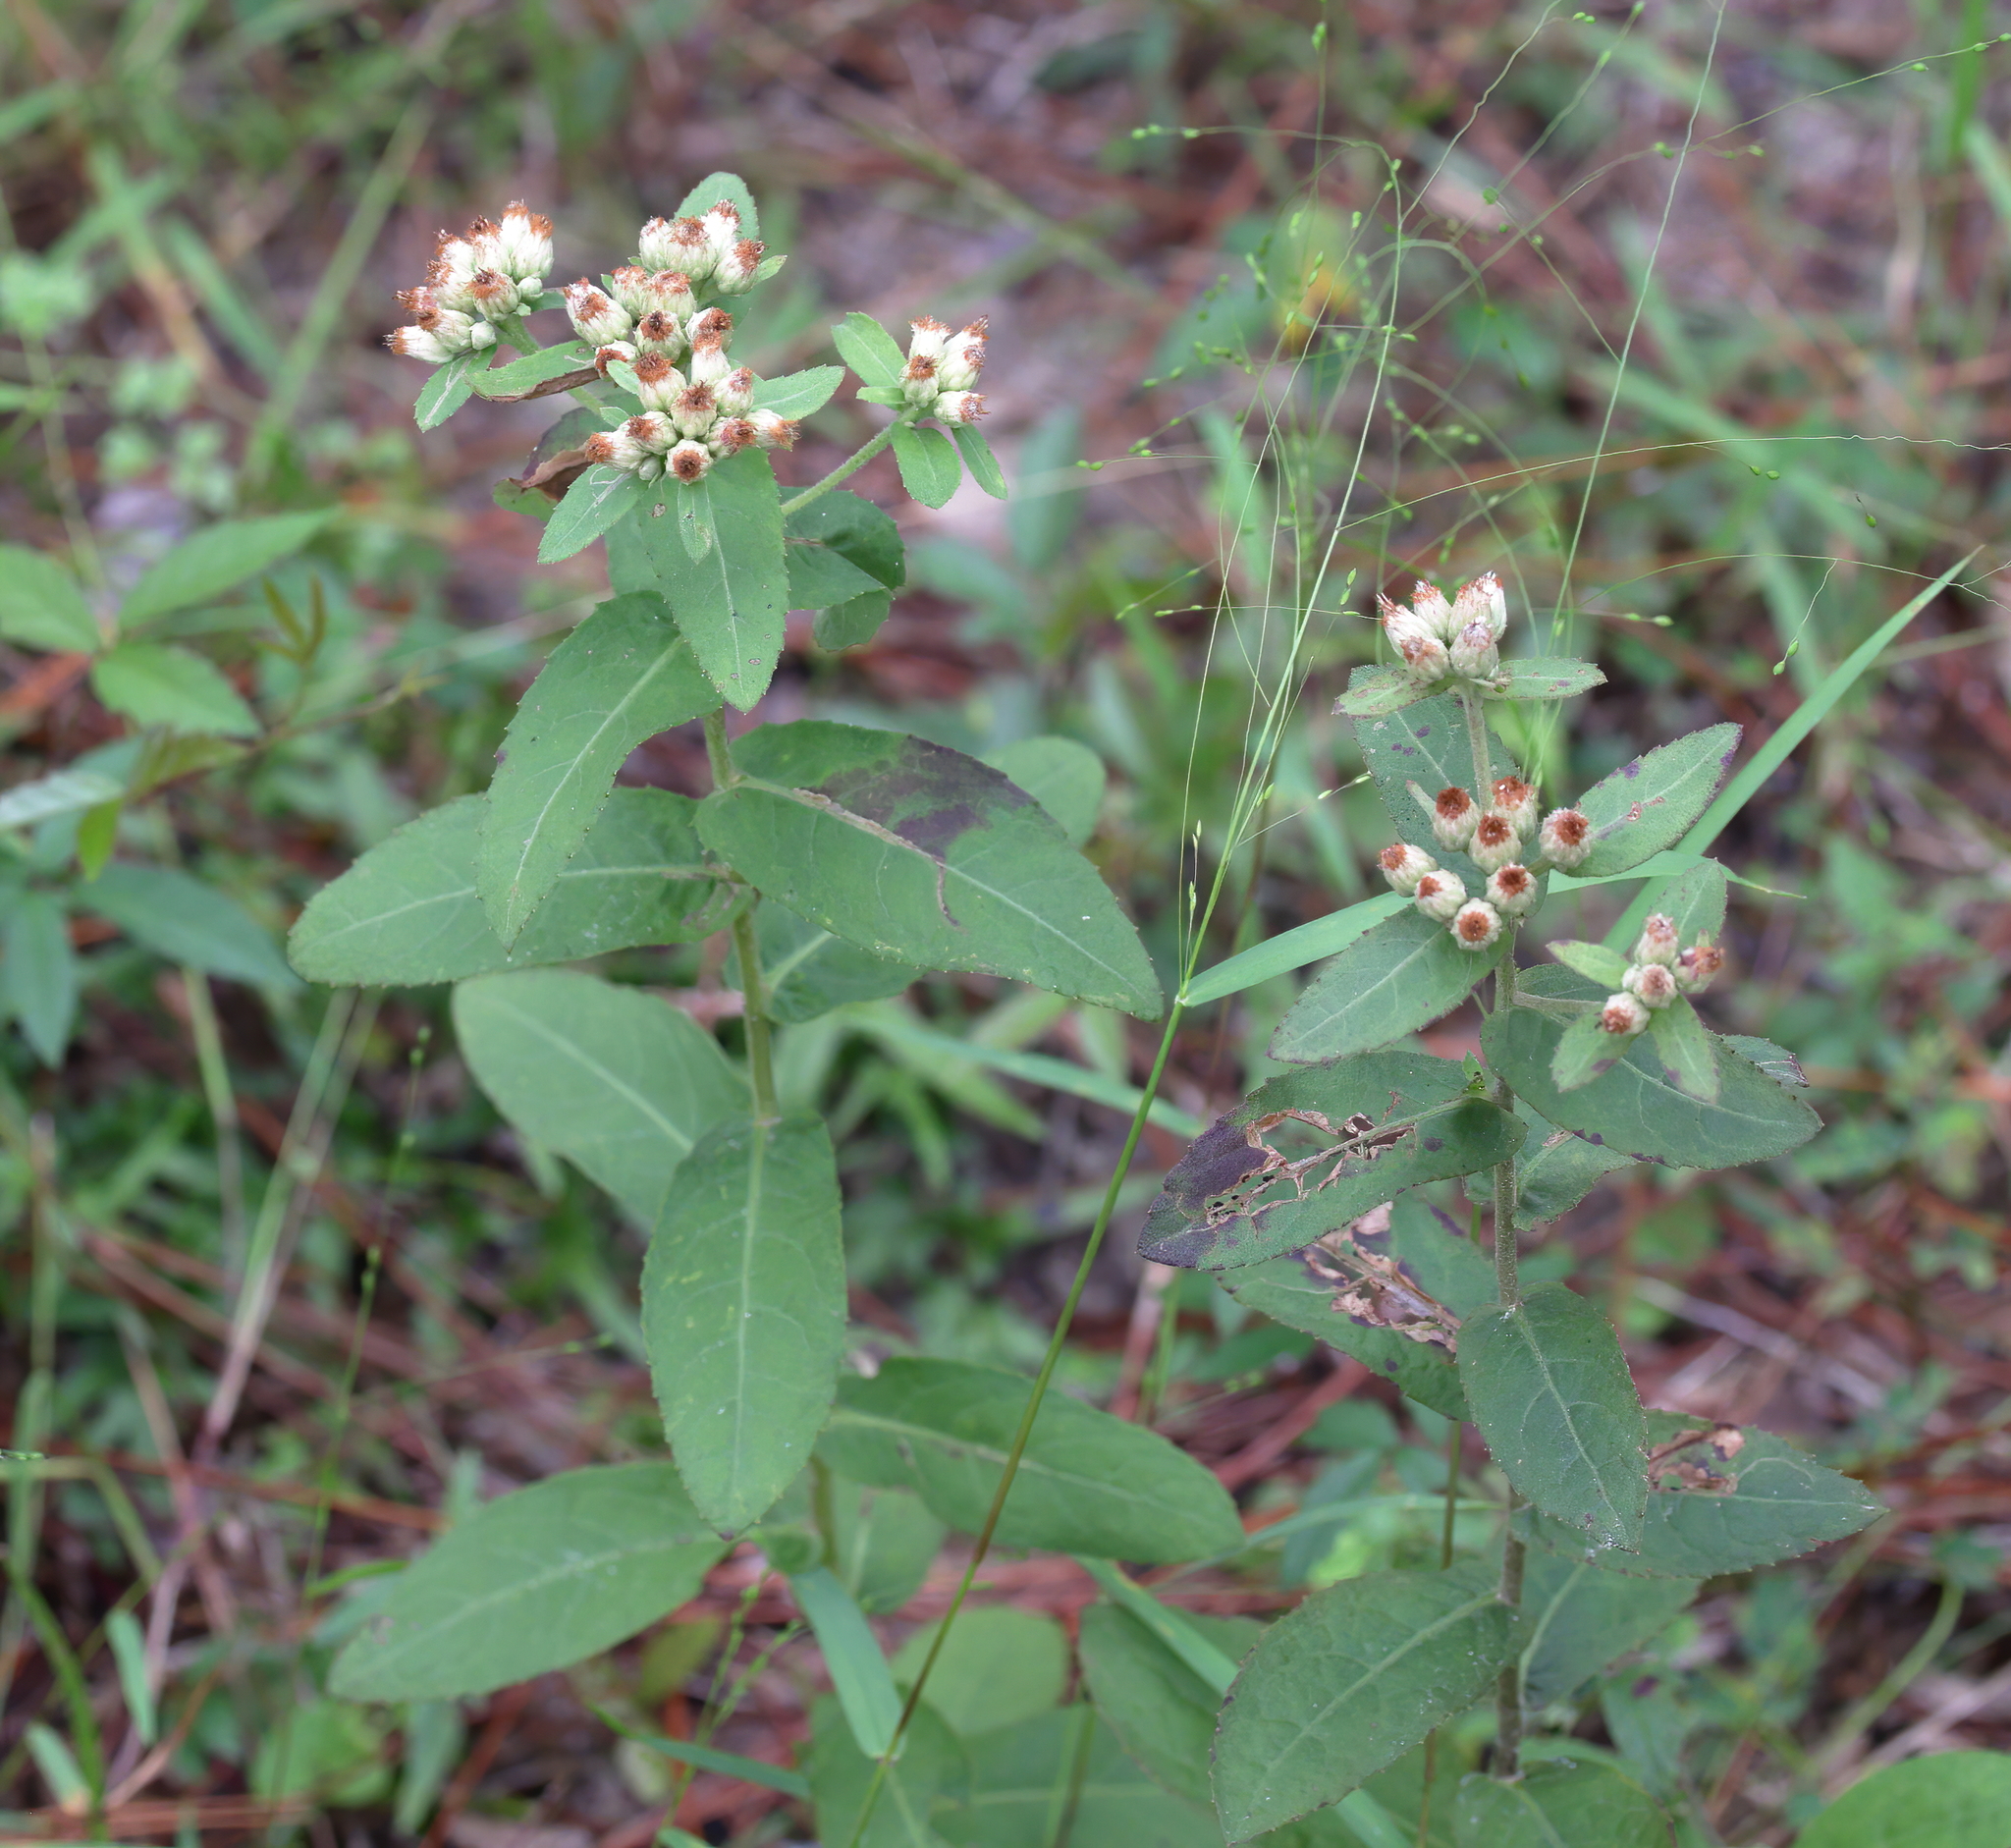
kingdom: Plantae
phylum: Tracheophyta
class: Magnoliopsida
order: Asterales
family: Asteraceae
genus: Pluchea
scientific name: Pluchea foetida
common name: Stinking camphorweed
